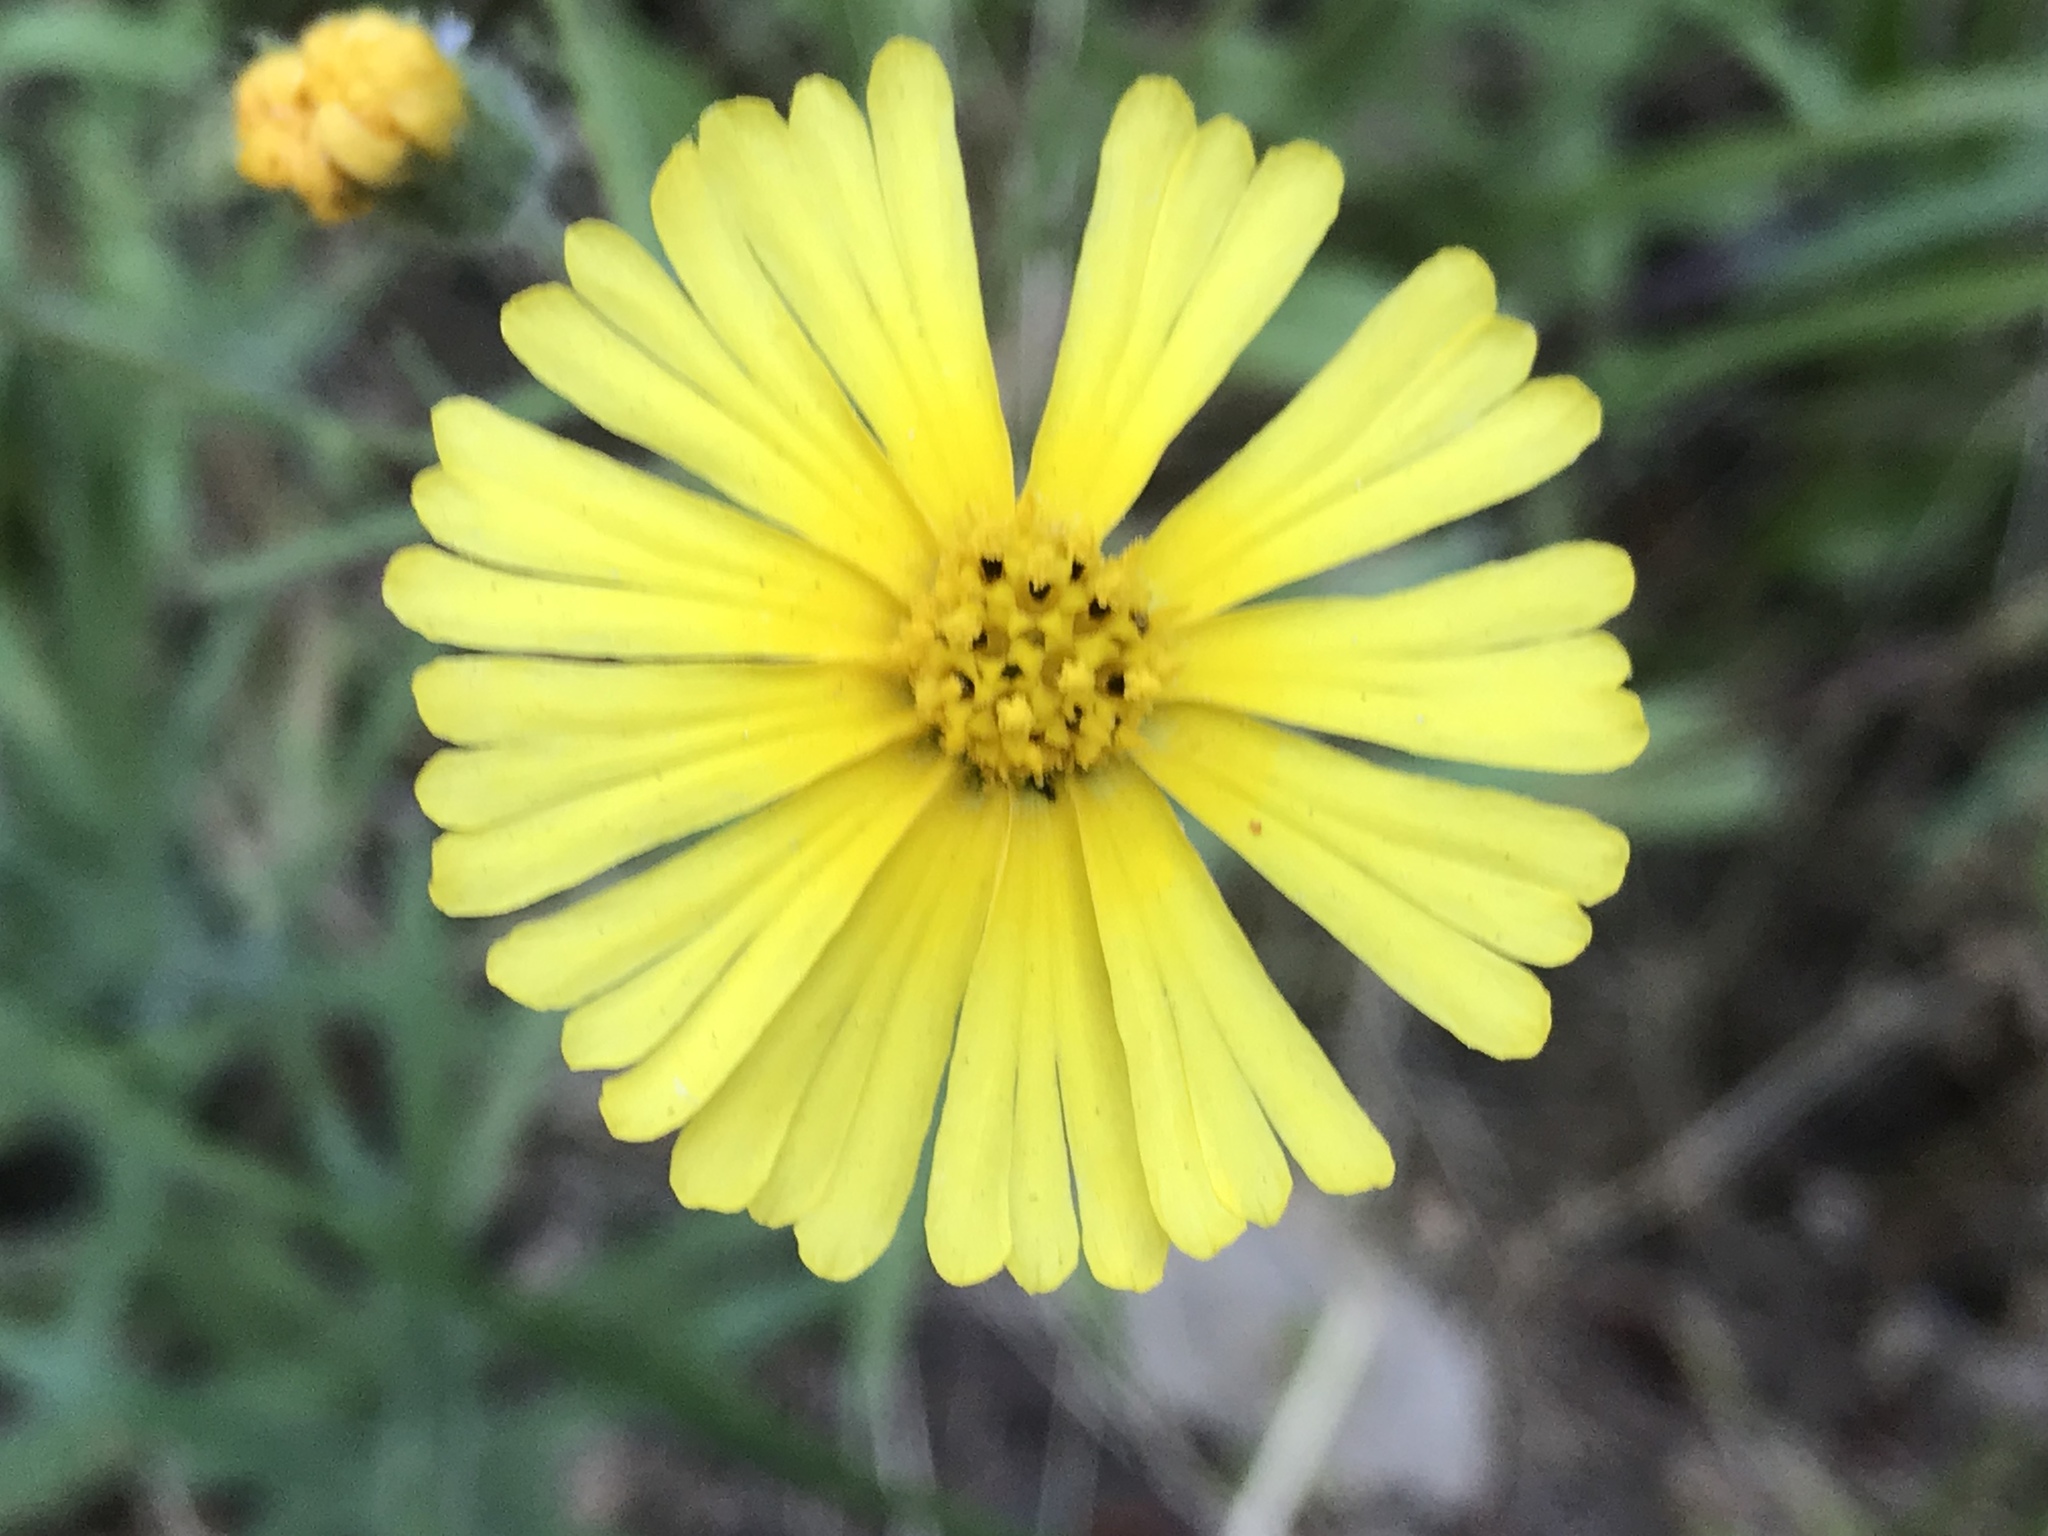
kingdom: Plantae
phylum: Tracheophyta
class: Magnoliopsida
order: Asterales
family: Asteraceae
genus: Madia
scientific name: Madia elegans
